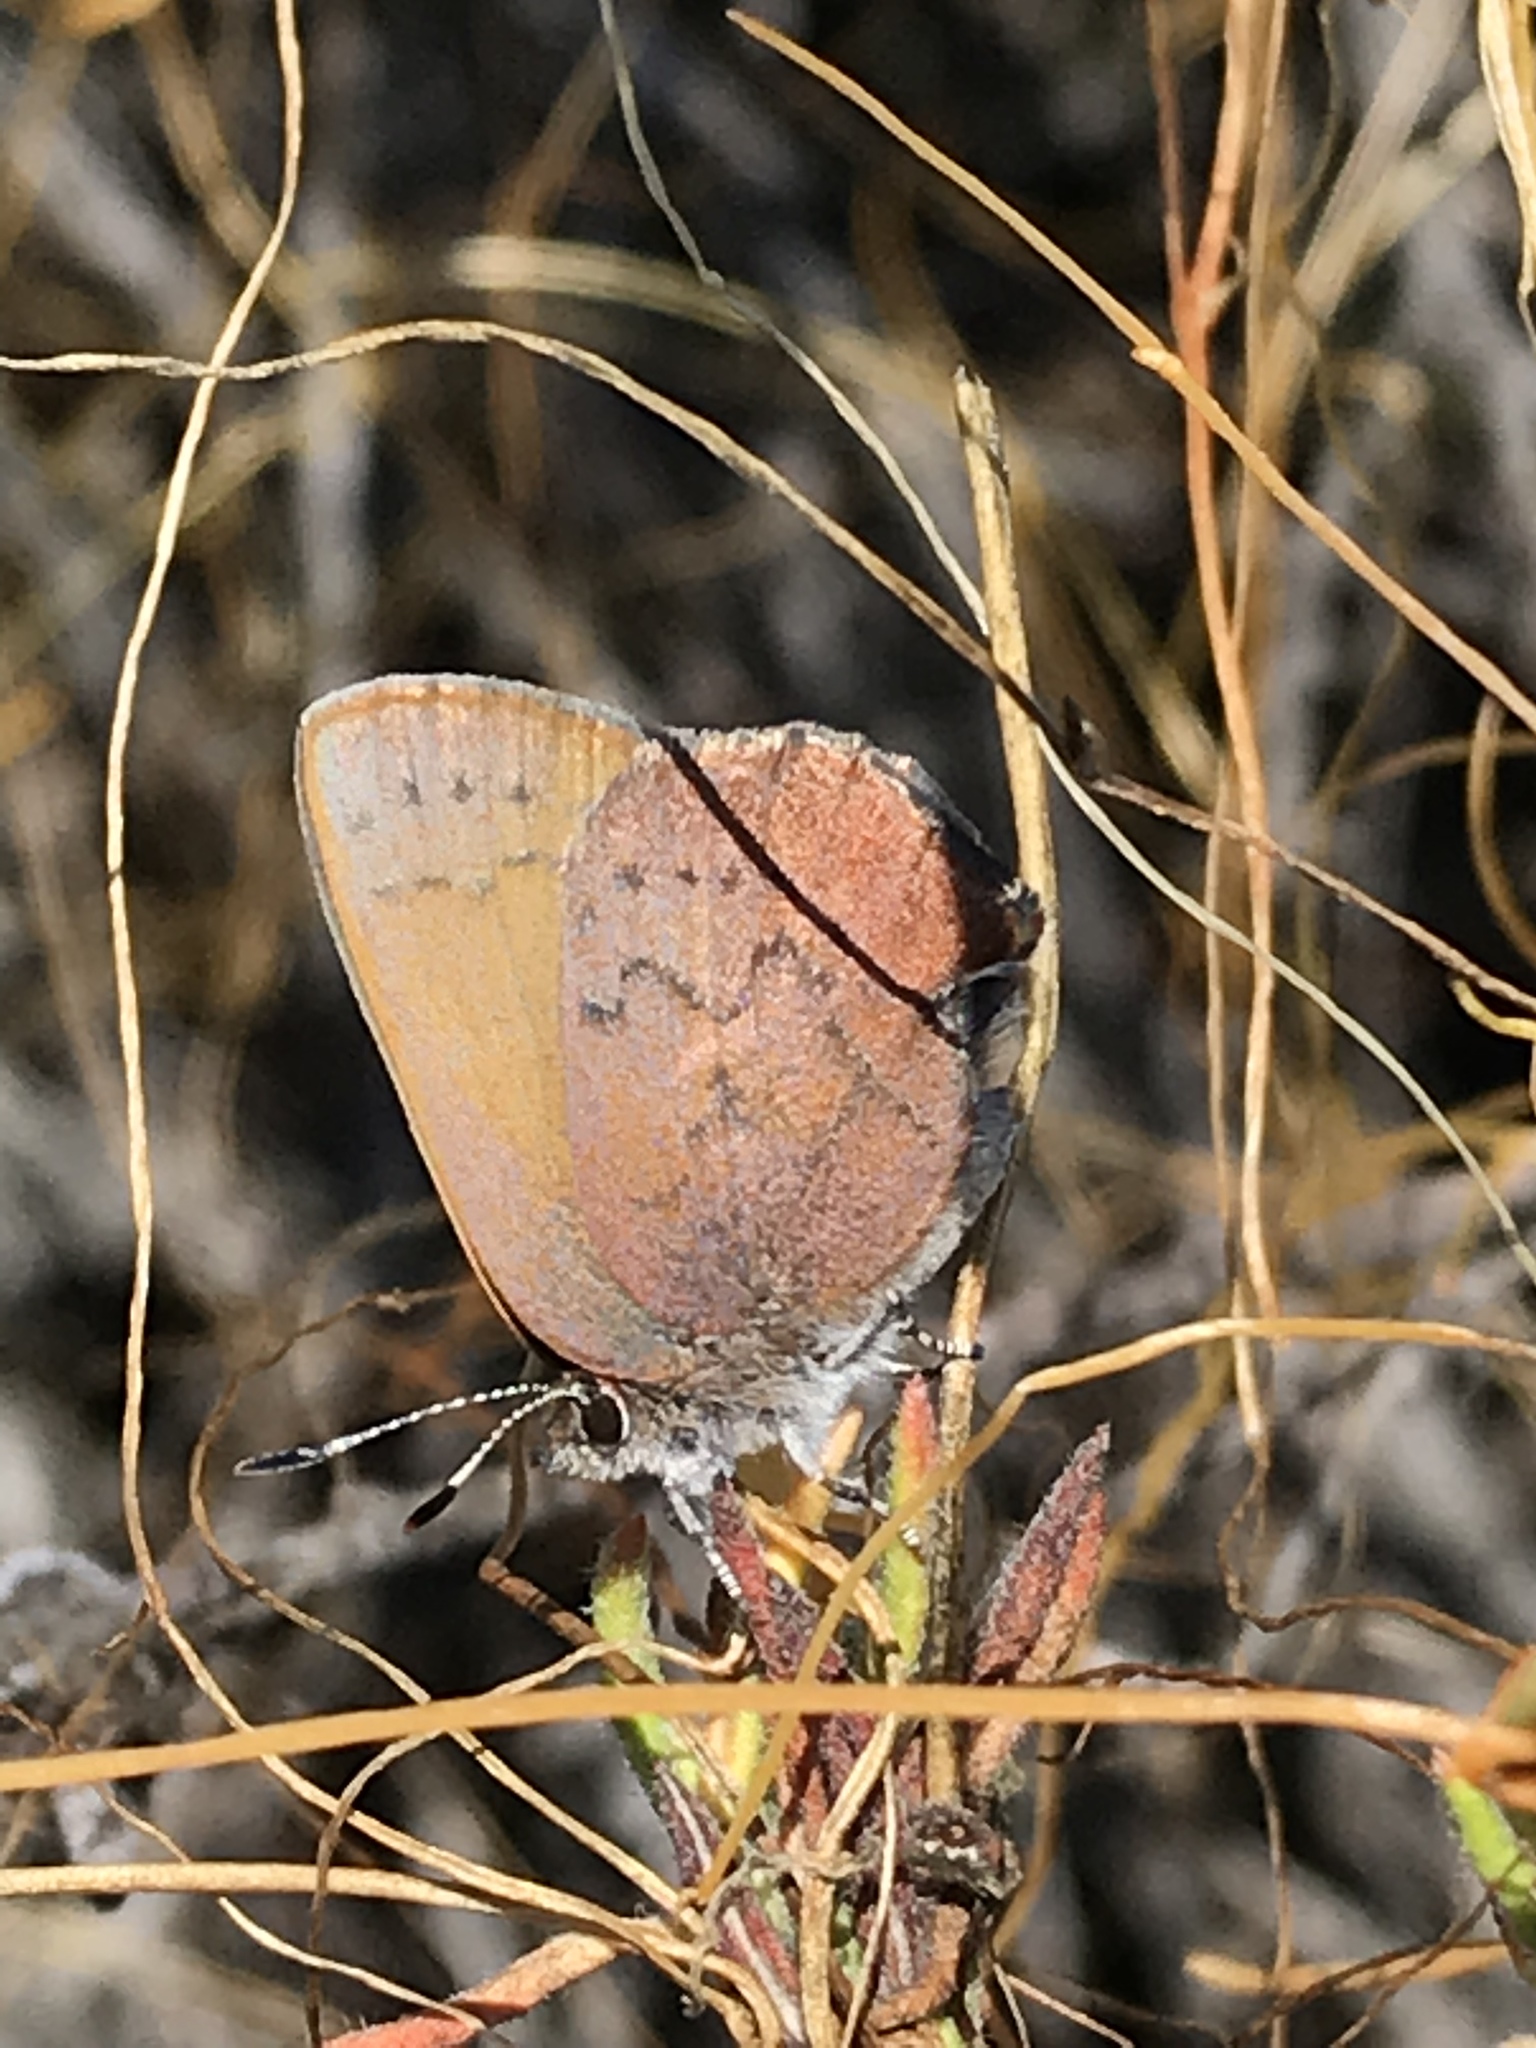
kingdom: Animalia
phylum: Arthropoda
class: Insecta
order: Lepidoptera
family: Lycaenidae
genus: Incisalia
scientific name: Incisalia irioides
